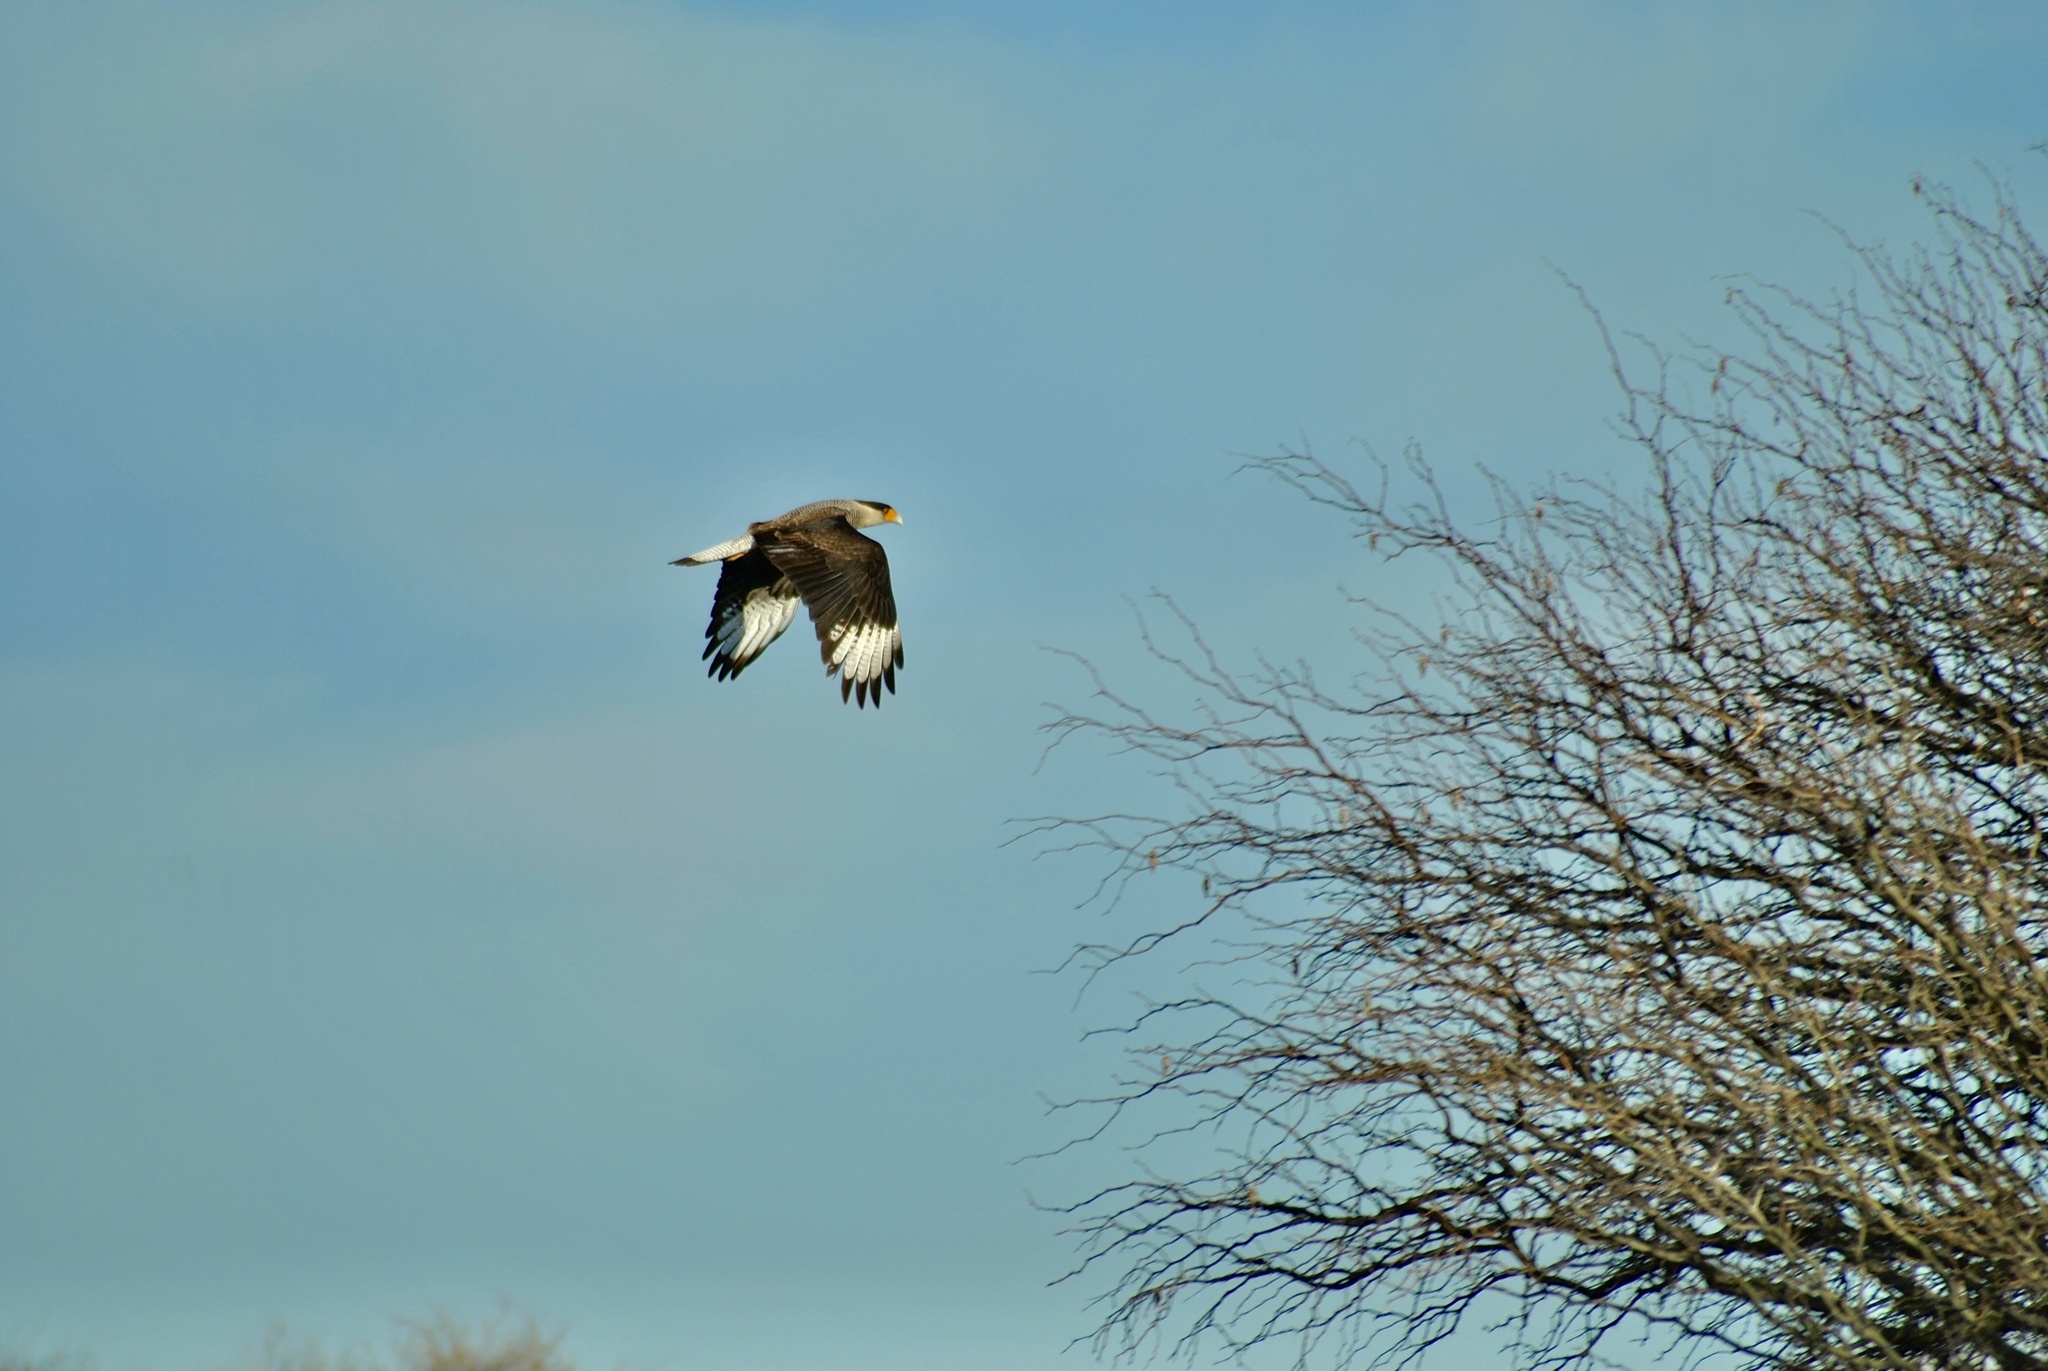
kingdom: Animalia
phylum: Chordata
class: Aves
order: Falconiformes
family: Falconidae
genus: Caracara
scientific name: Caracara plancus
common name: Southern caracara
